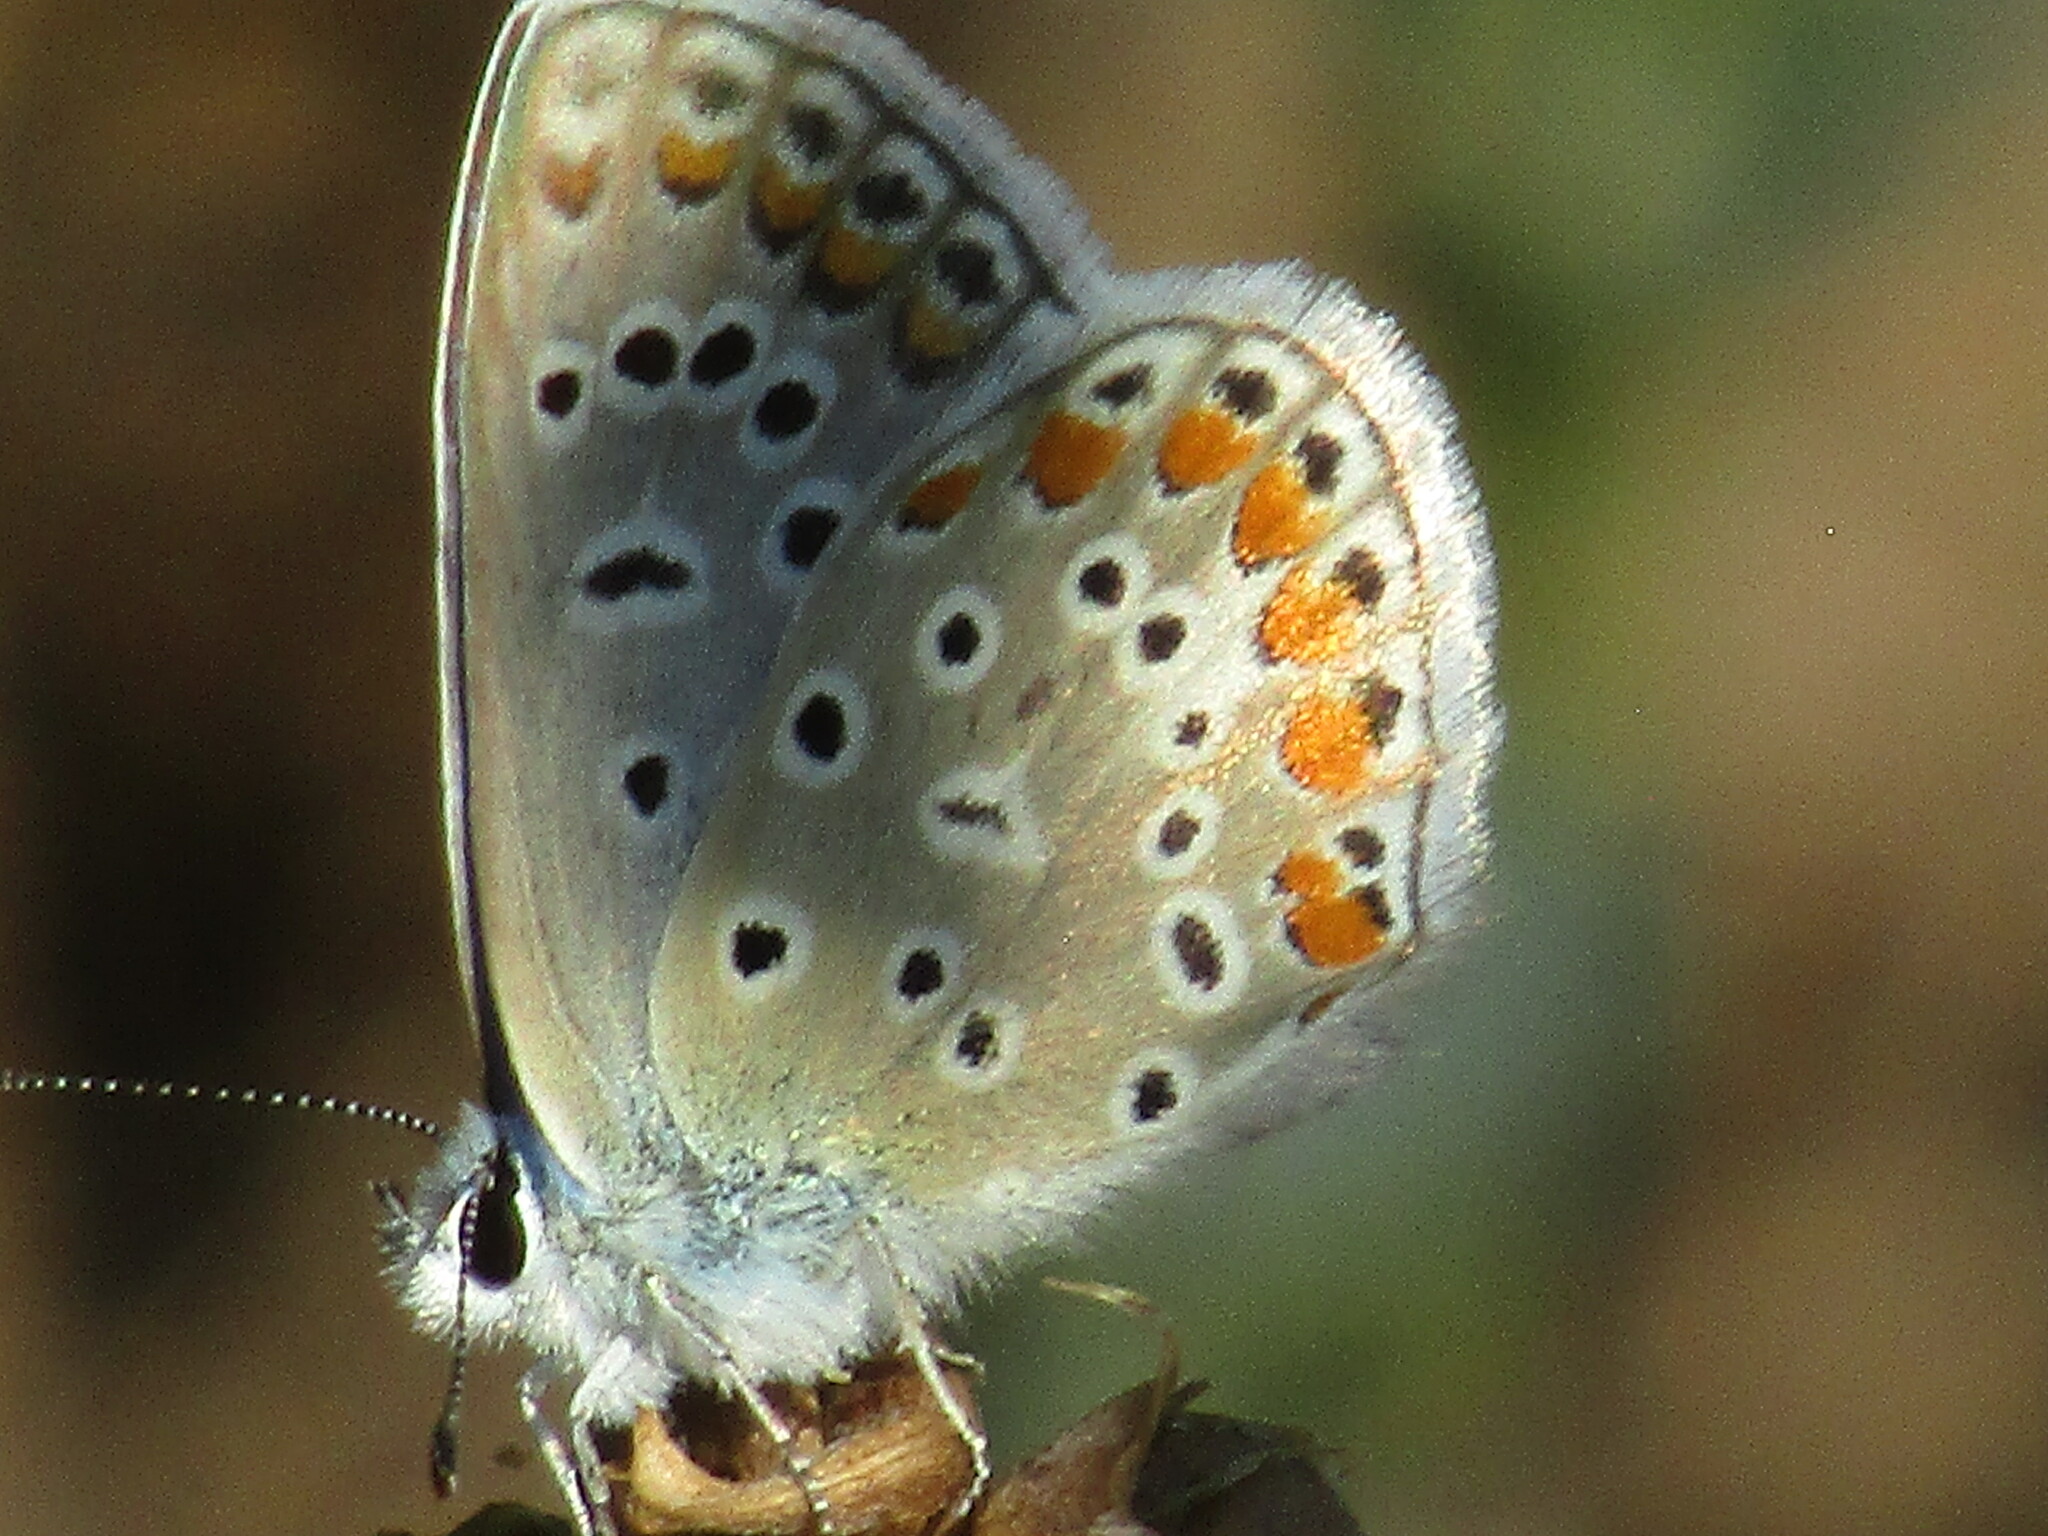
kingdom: Animalia
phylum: Arthropoda
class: Insecta
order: Lepidoptera
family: Lycaenidae
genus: Polyommatus
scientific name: Polyommatus icarus
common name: Common blue
